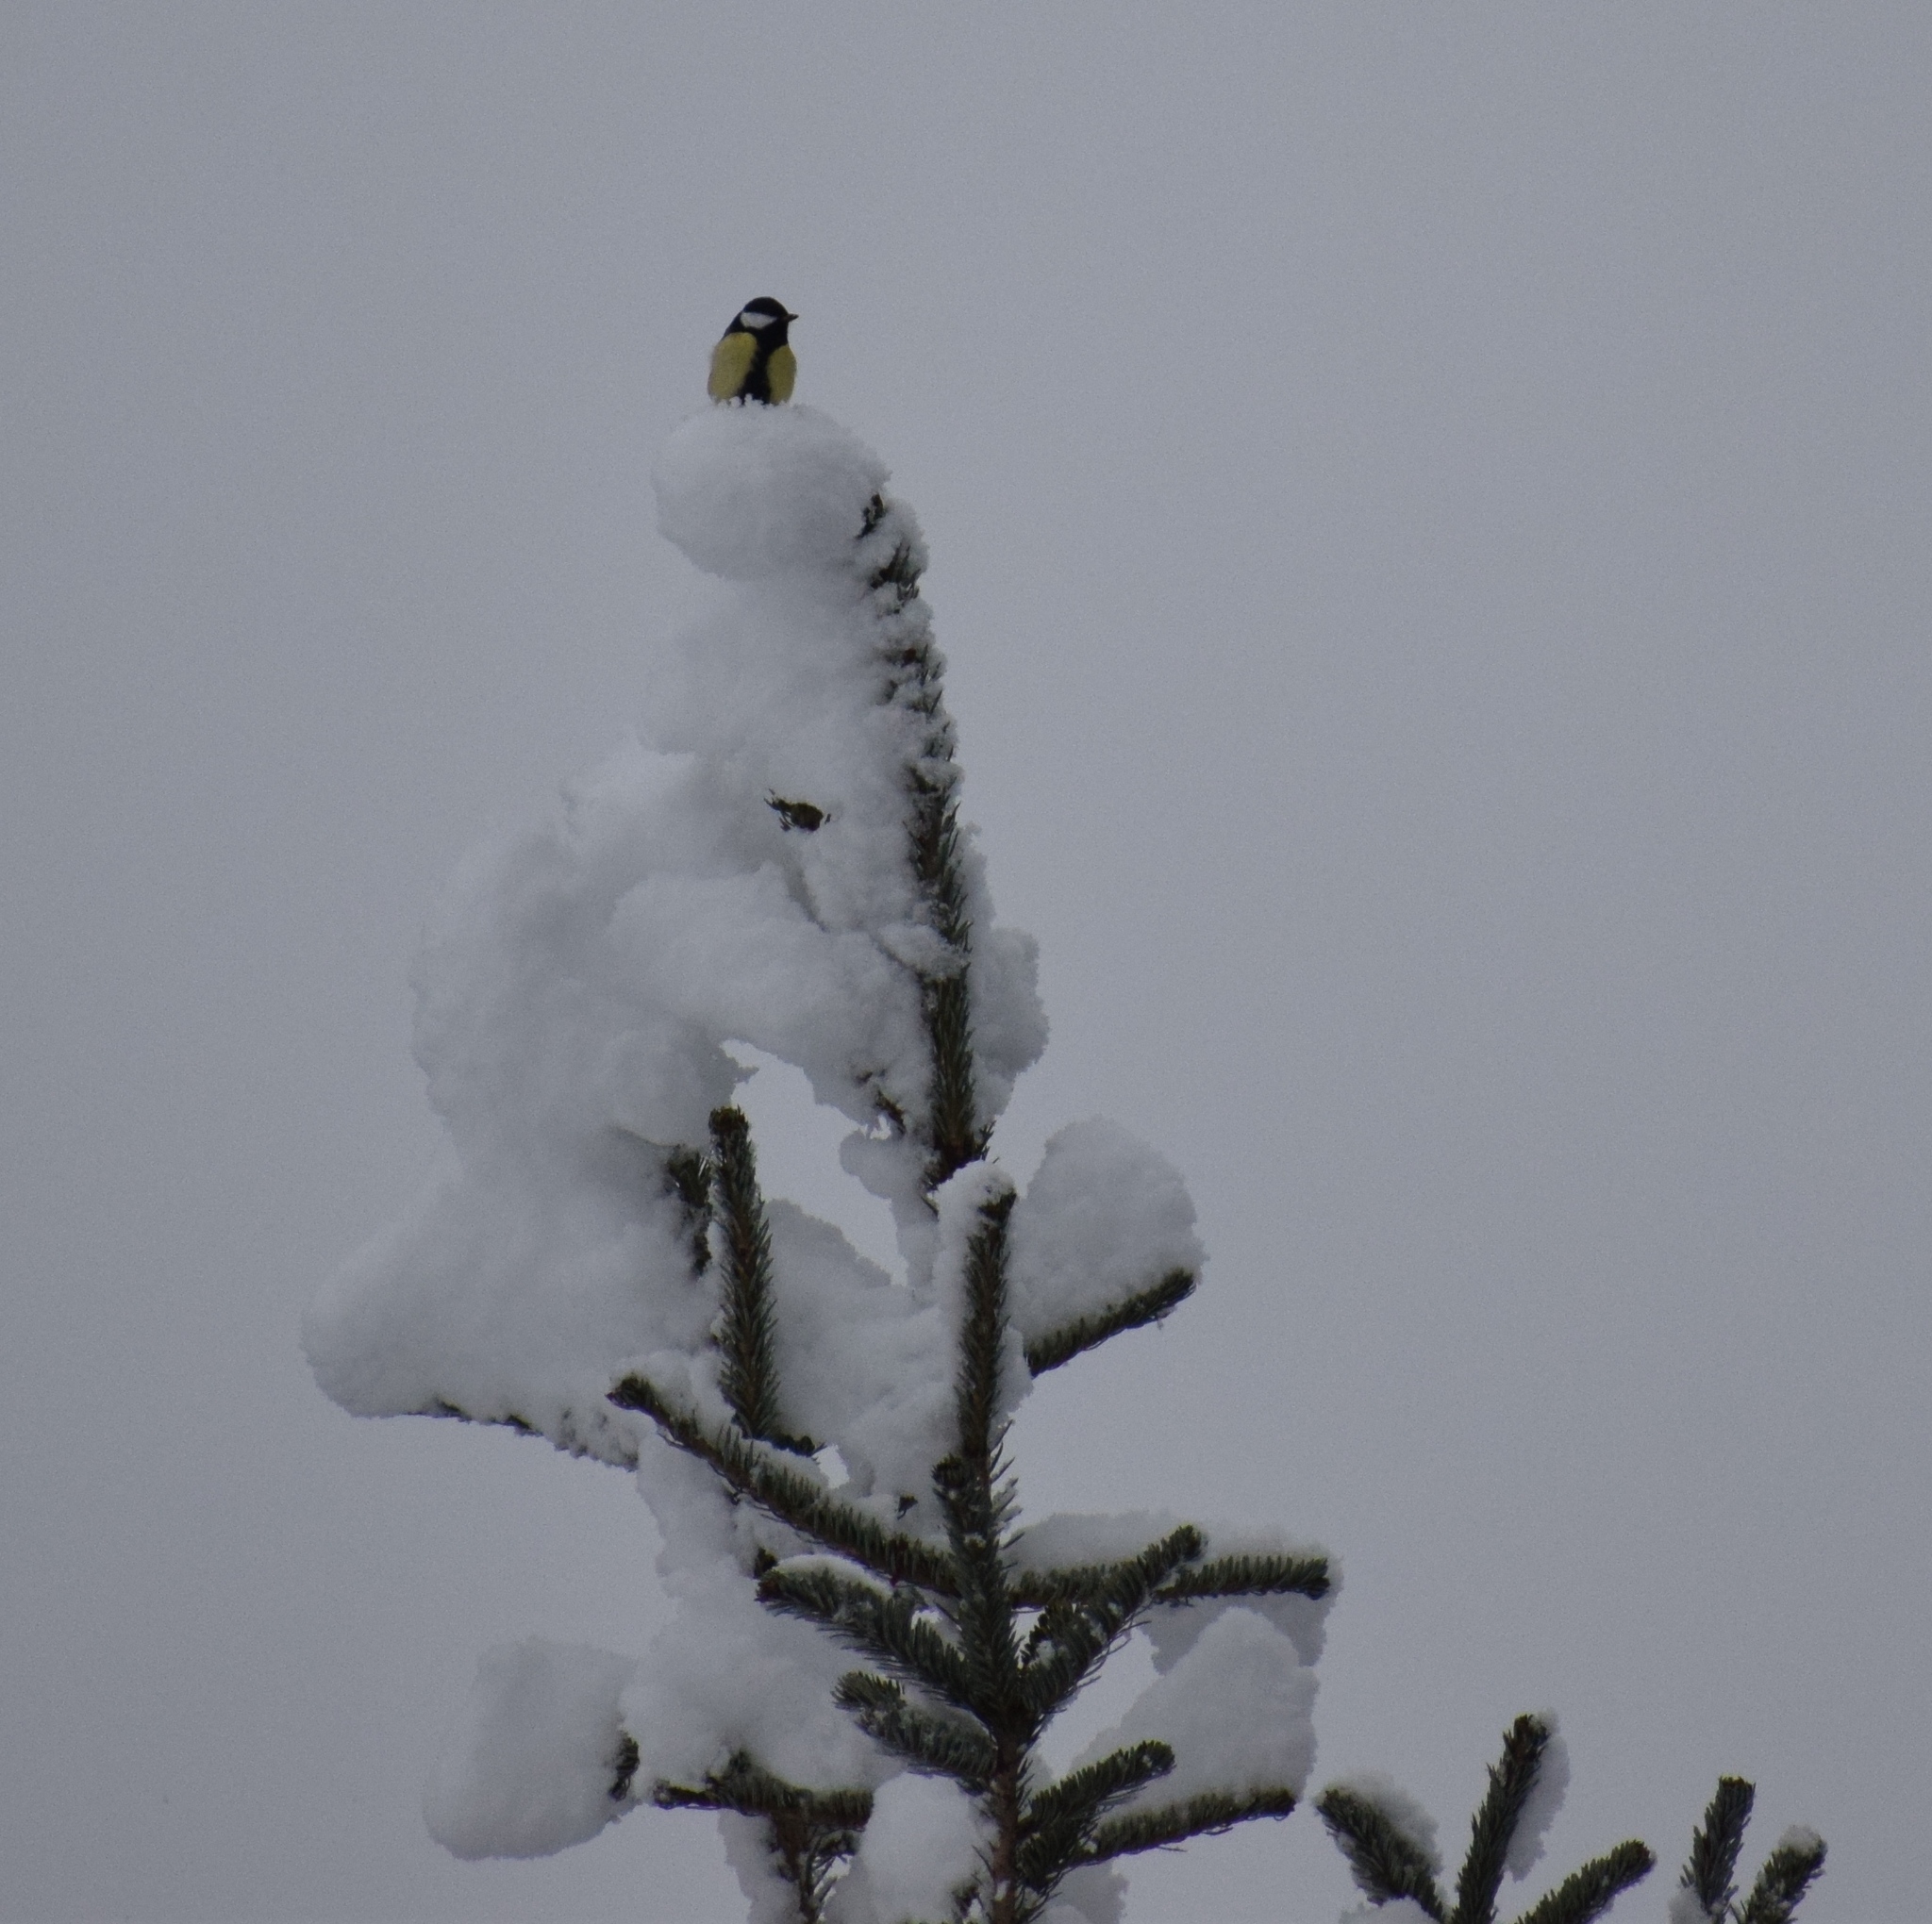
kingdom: Animalia
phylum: Chordata
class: Aves
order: Passeriformes
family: Paridae
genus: Parus
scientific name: Parus major
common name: Great tit
